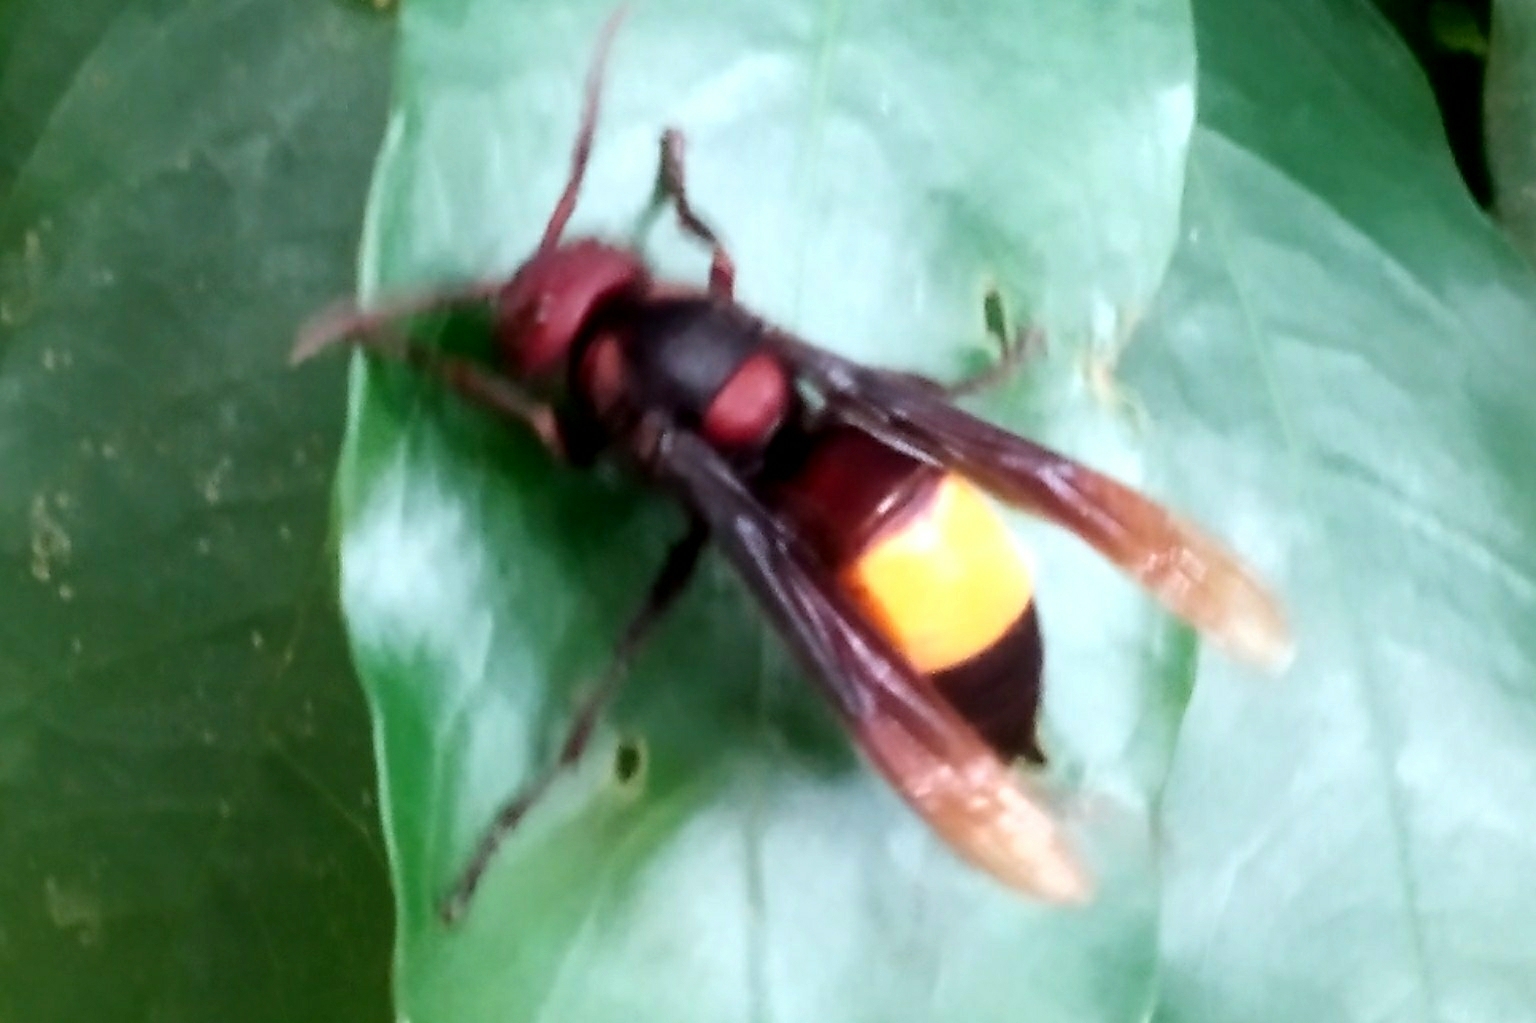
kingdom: Animalia
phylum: Arthropoda
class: Insecta
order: Hymenoptera
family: Vespidae
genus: Vespa
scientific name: Vespa affinis
